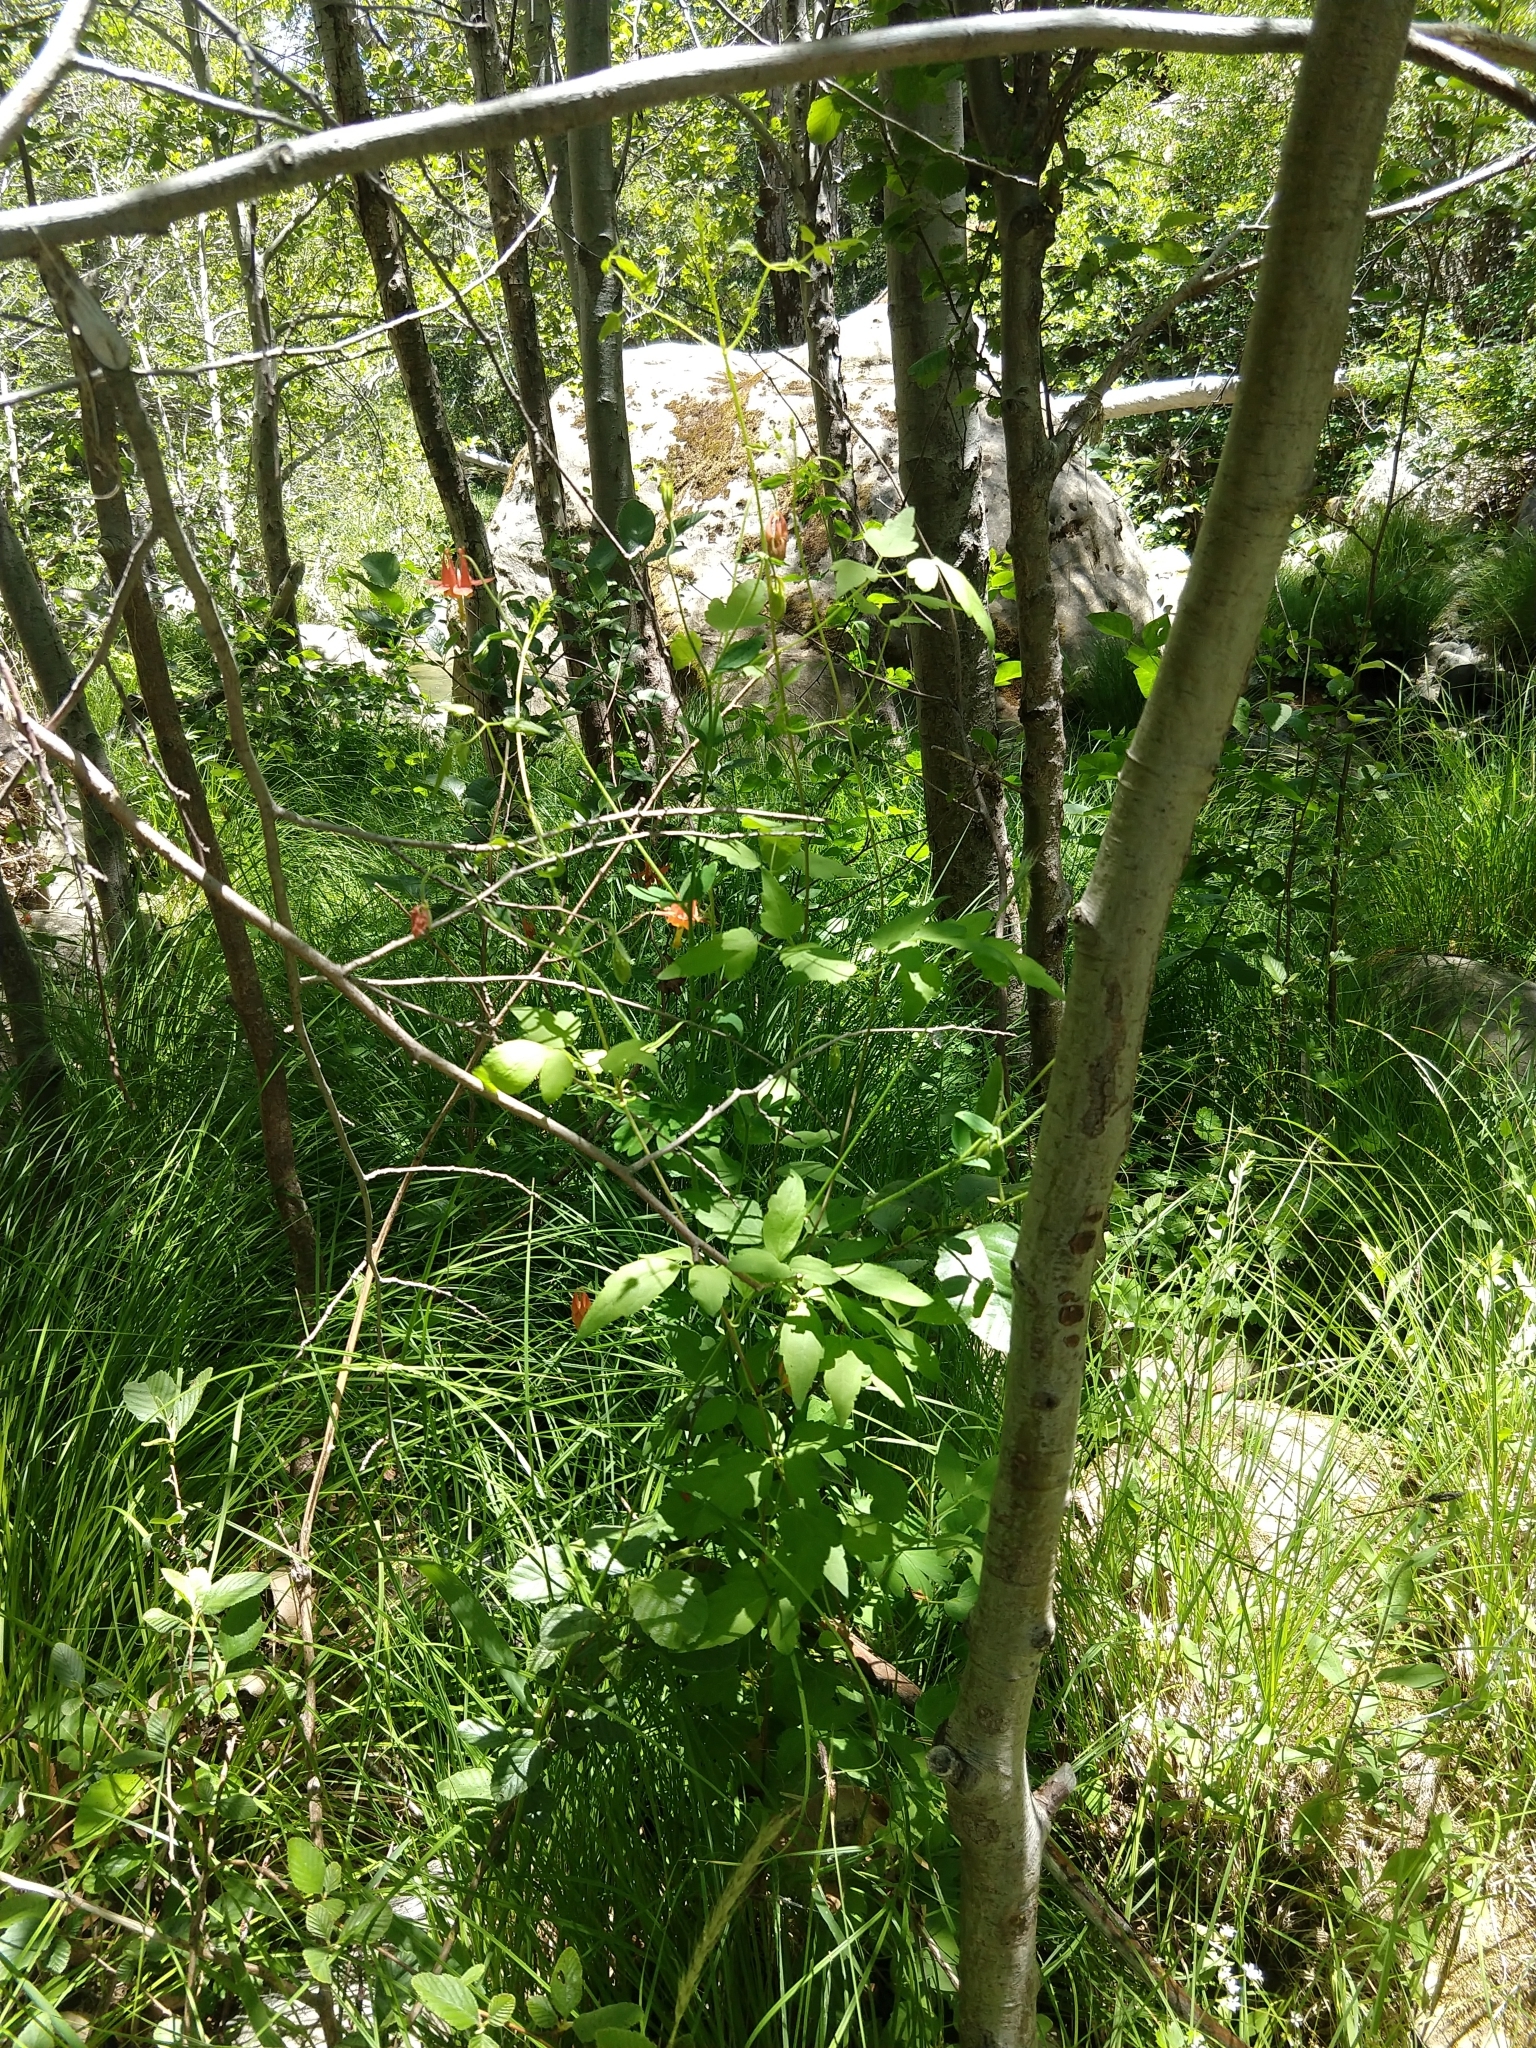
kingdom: Plantae
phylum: Tracheophyta
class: Magnoliopsida
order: Ranunculales
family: Ranunculaceae
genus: Aquilegia
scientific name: Aquilegia formosa
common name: Sitka columbine
